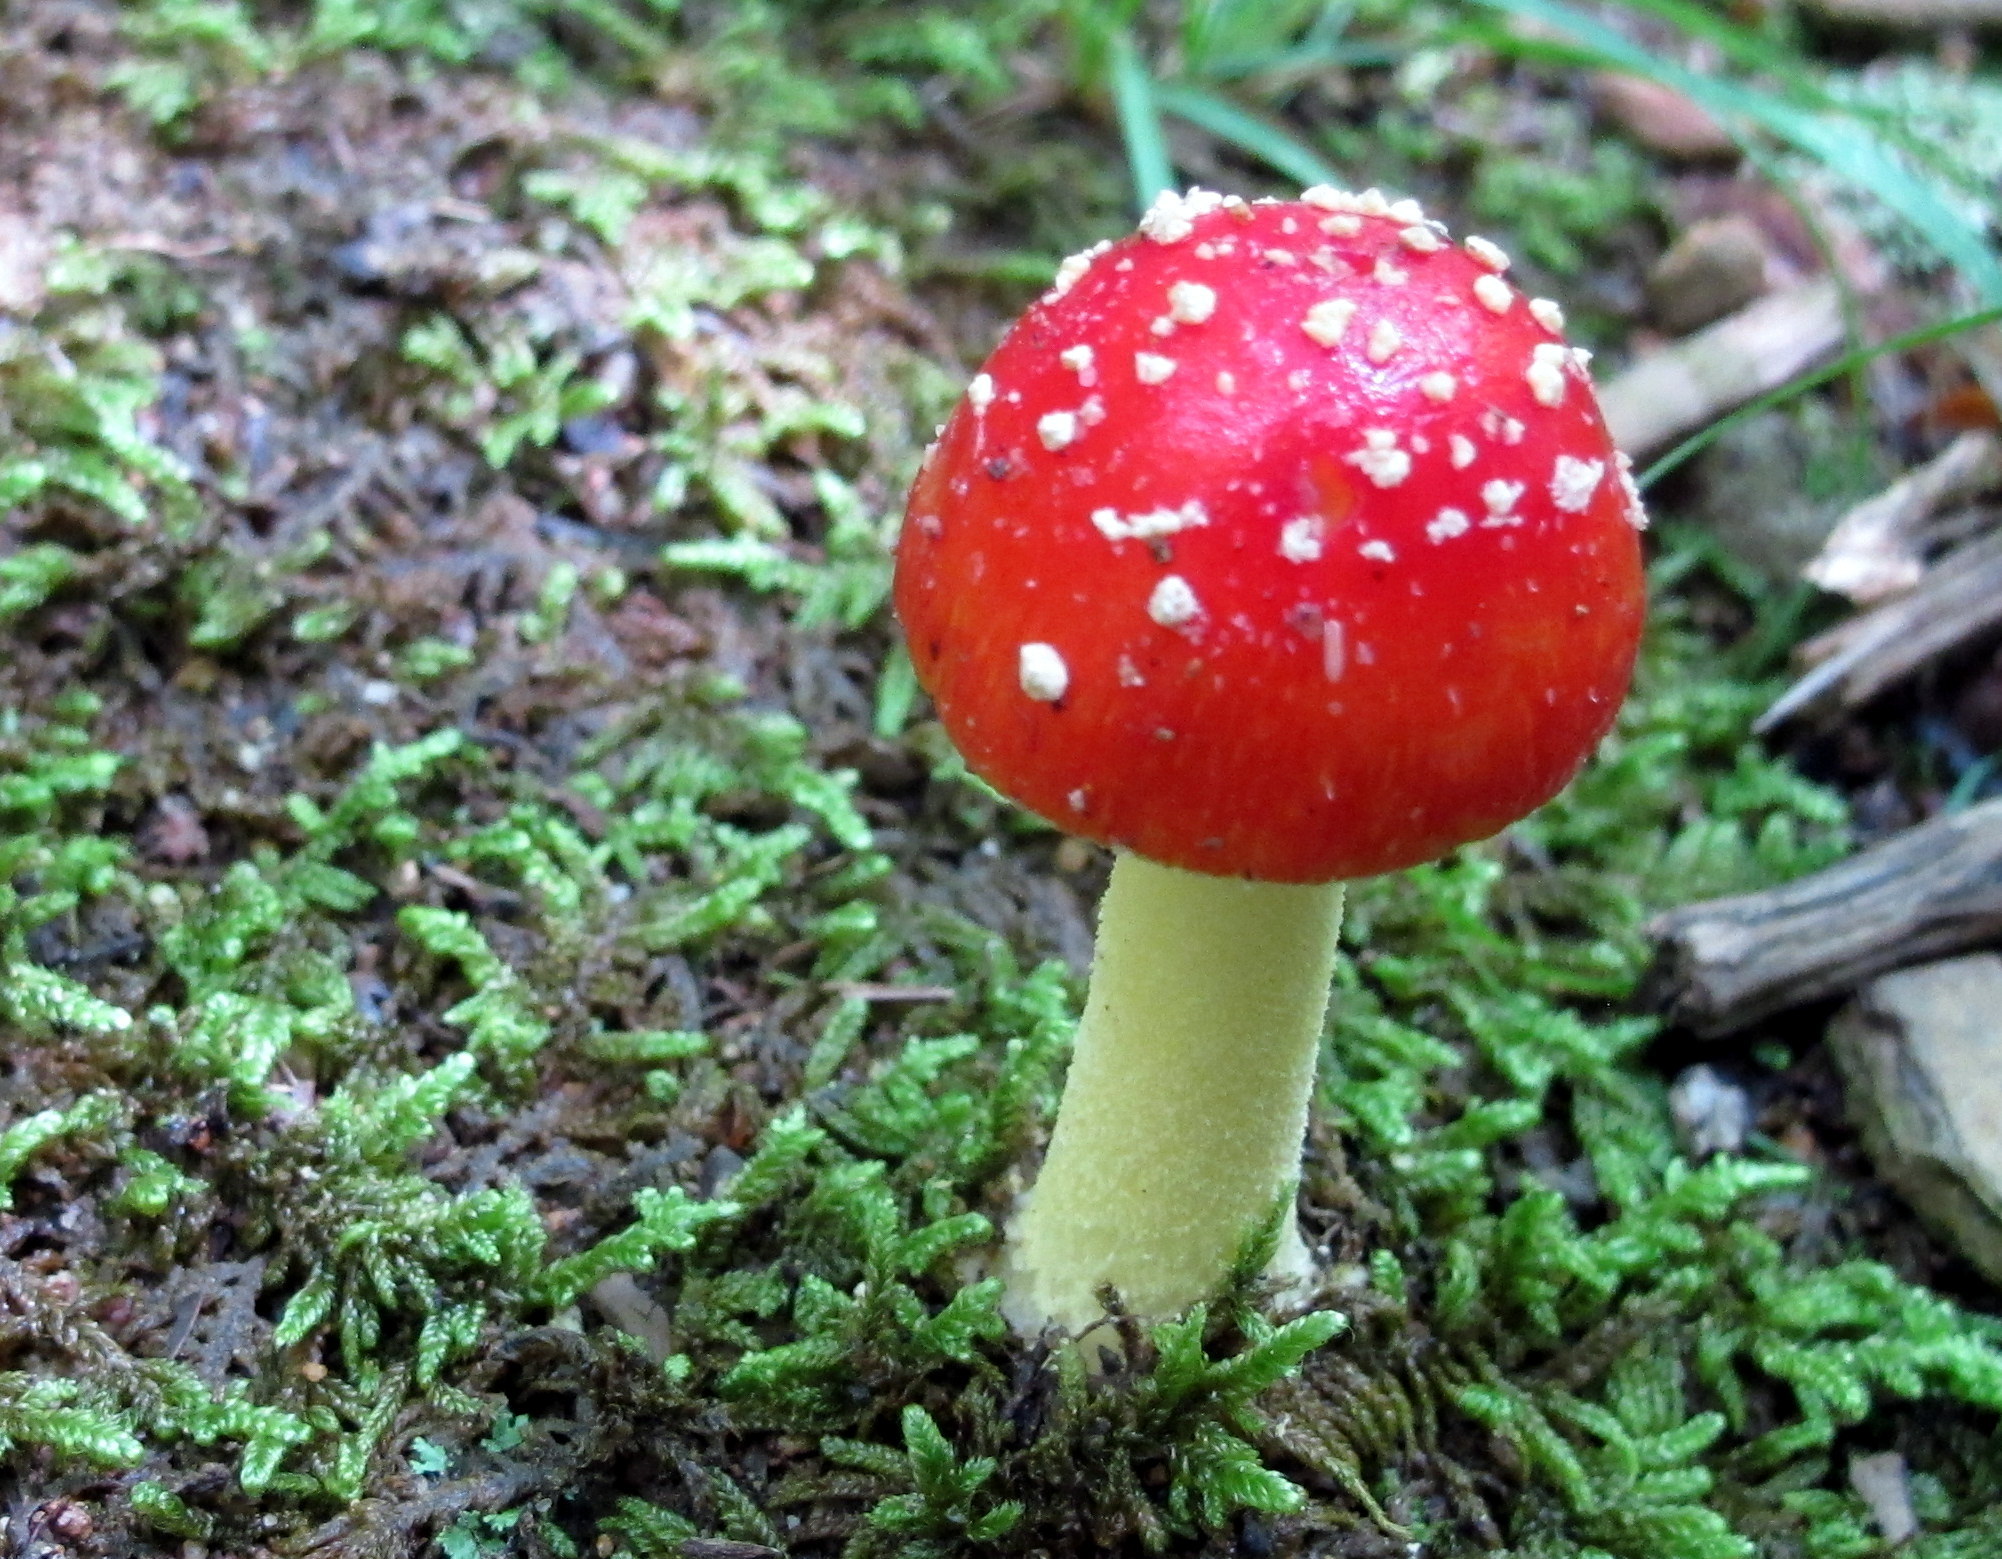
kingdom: Fungi
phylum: Basidiomycota
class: Agaricomycetes
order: Agaricales
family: Amanitaceae
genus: Amanita
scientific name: Amanita parcivolvata
